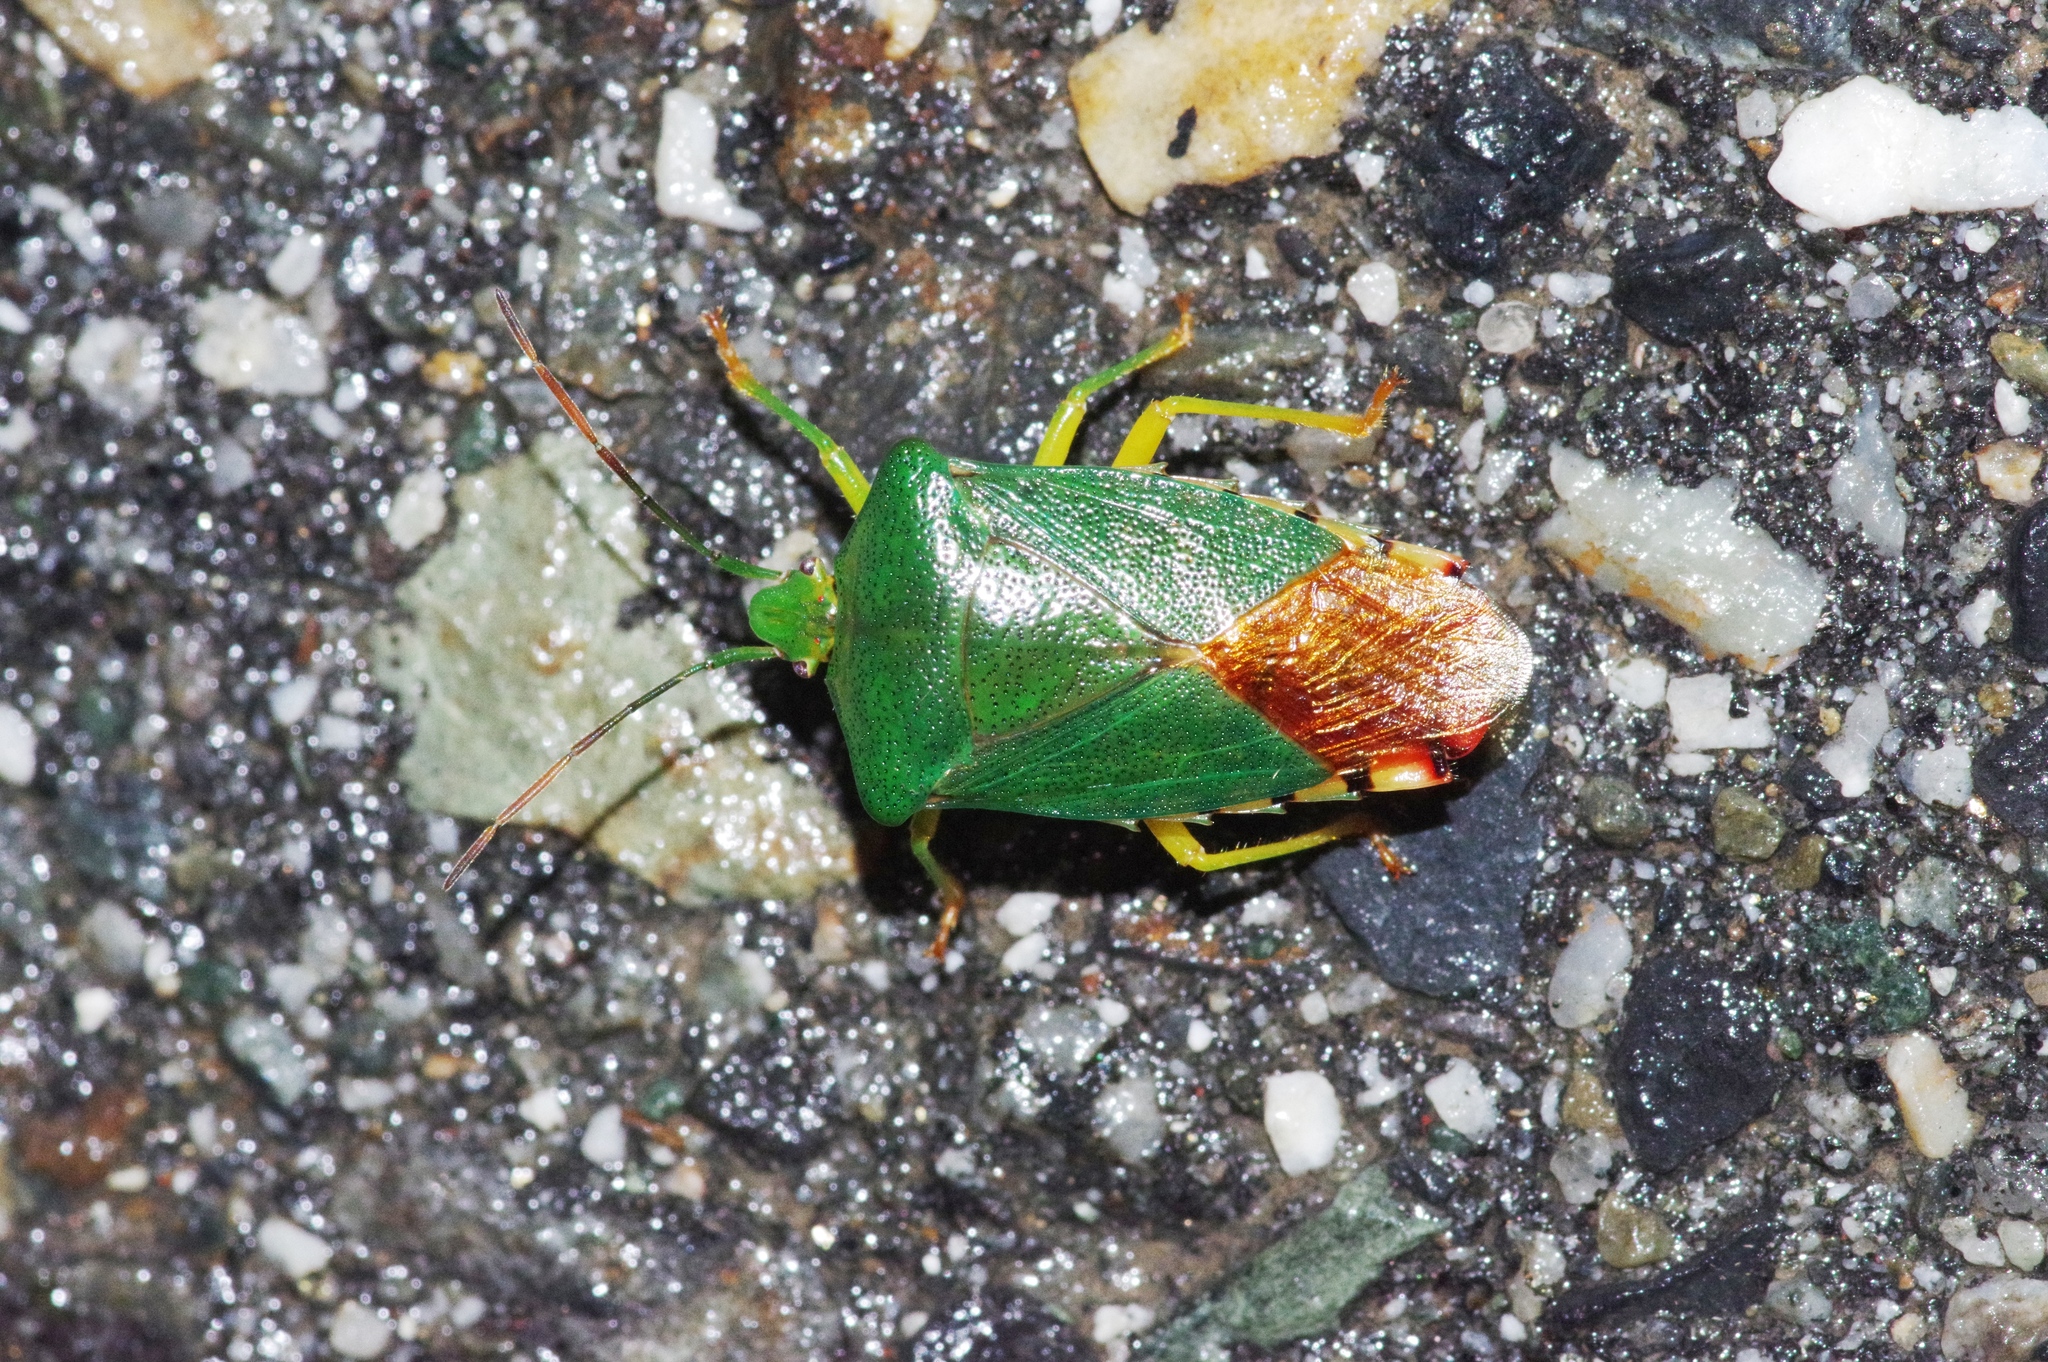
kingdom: Animalia
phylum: Arthropoda
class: Insecta
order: Hemiptera
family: Acanthosomatidae
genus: Acanthosoma
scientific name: Acanthosoma crassicaudum
